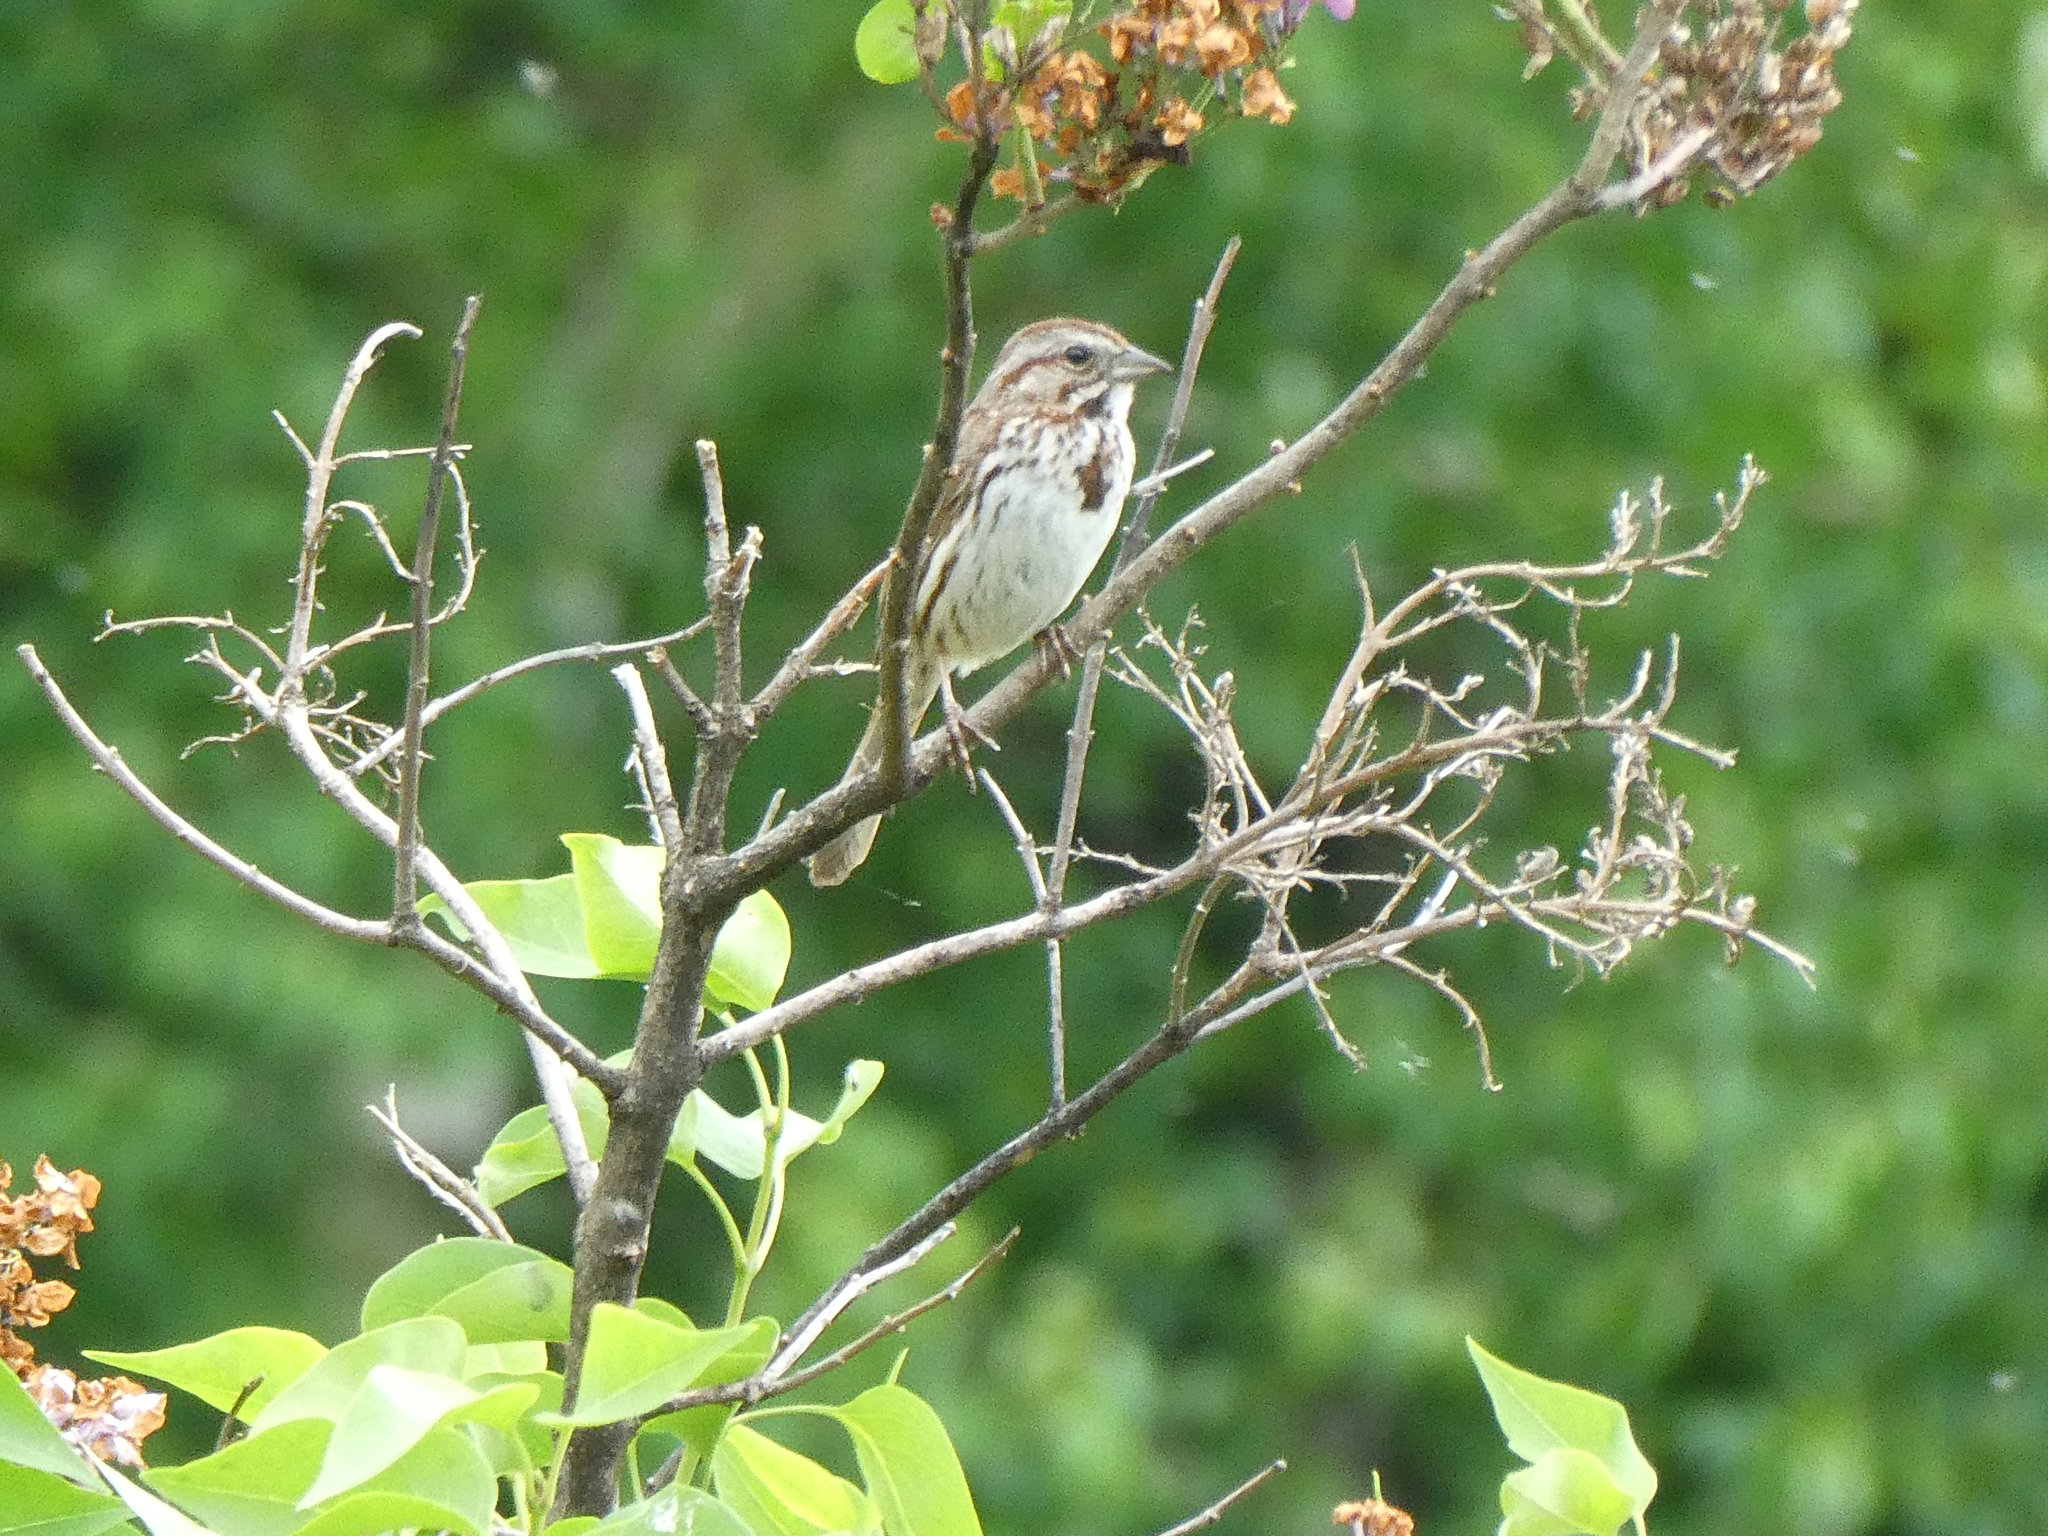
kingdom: Animalia
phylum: Chordata
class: Aves
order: Passeriformes
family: Passerellidae
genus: Melospiza
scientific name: Melospiza melodia
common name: Song sparrow
